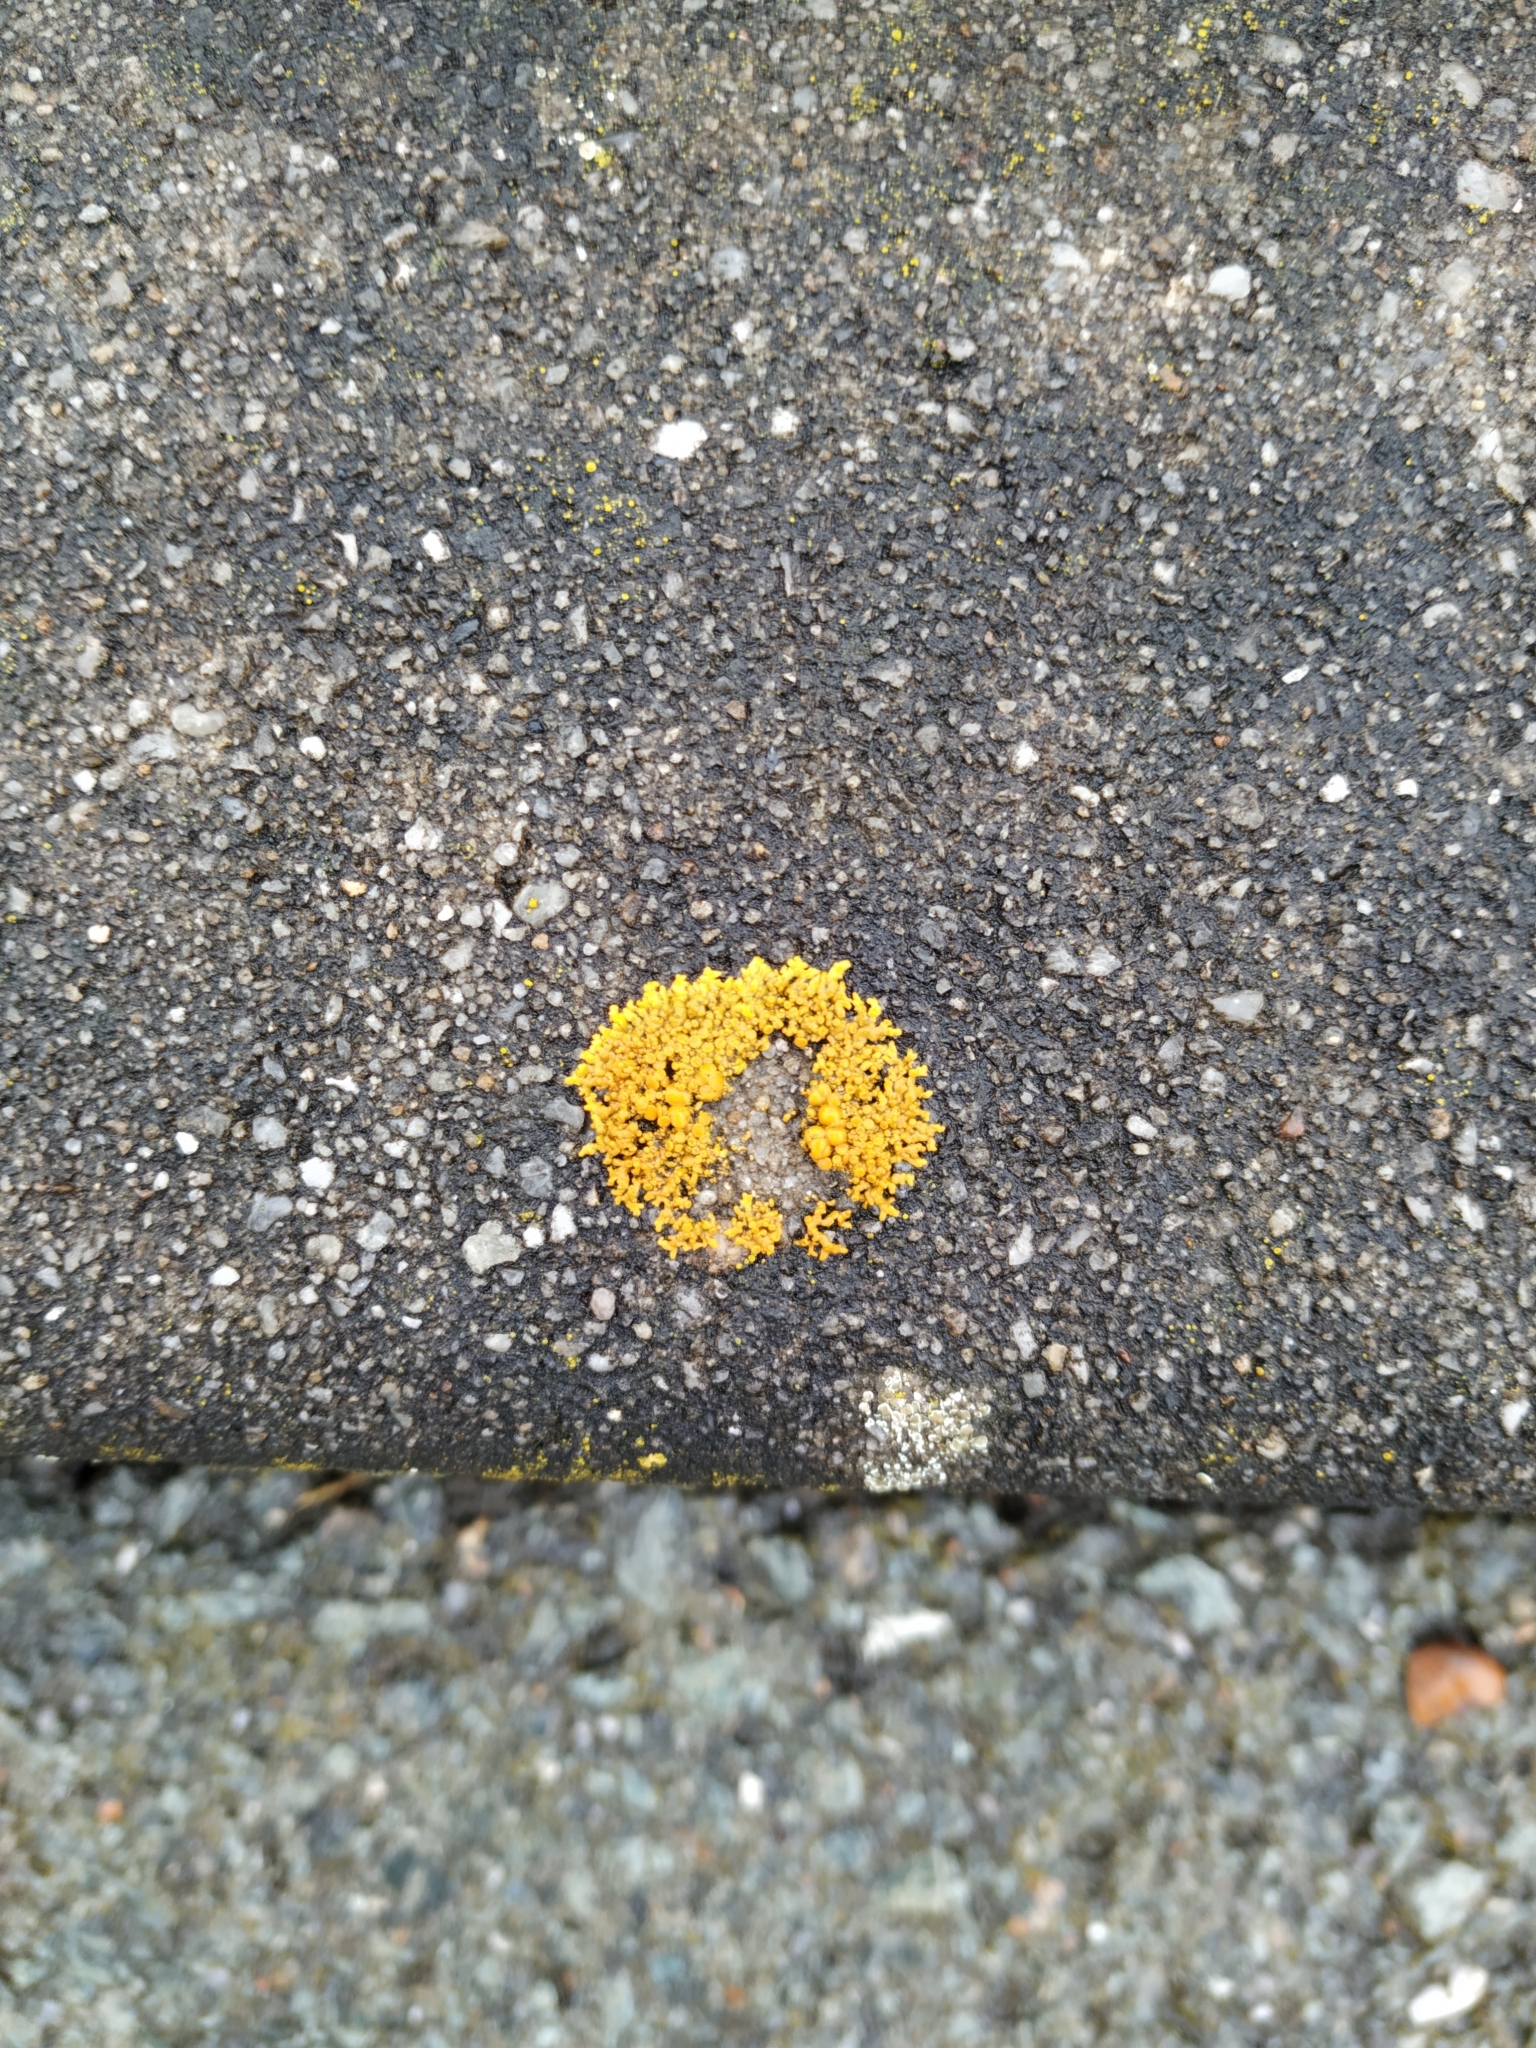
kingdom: Fungi
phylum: Ascomycota
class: Lecanoromycetes
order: Teloschistales
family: Teloschistaceae
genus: Xanthoria
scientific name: Xanthoria elegans
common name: Elegant sunburst lichen
